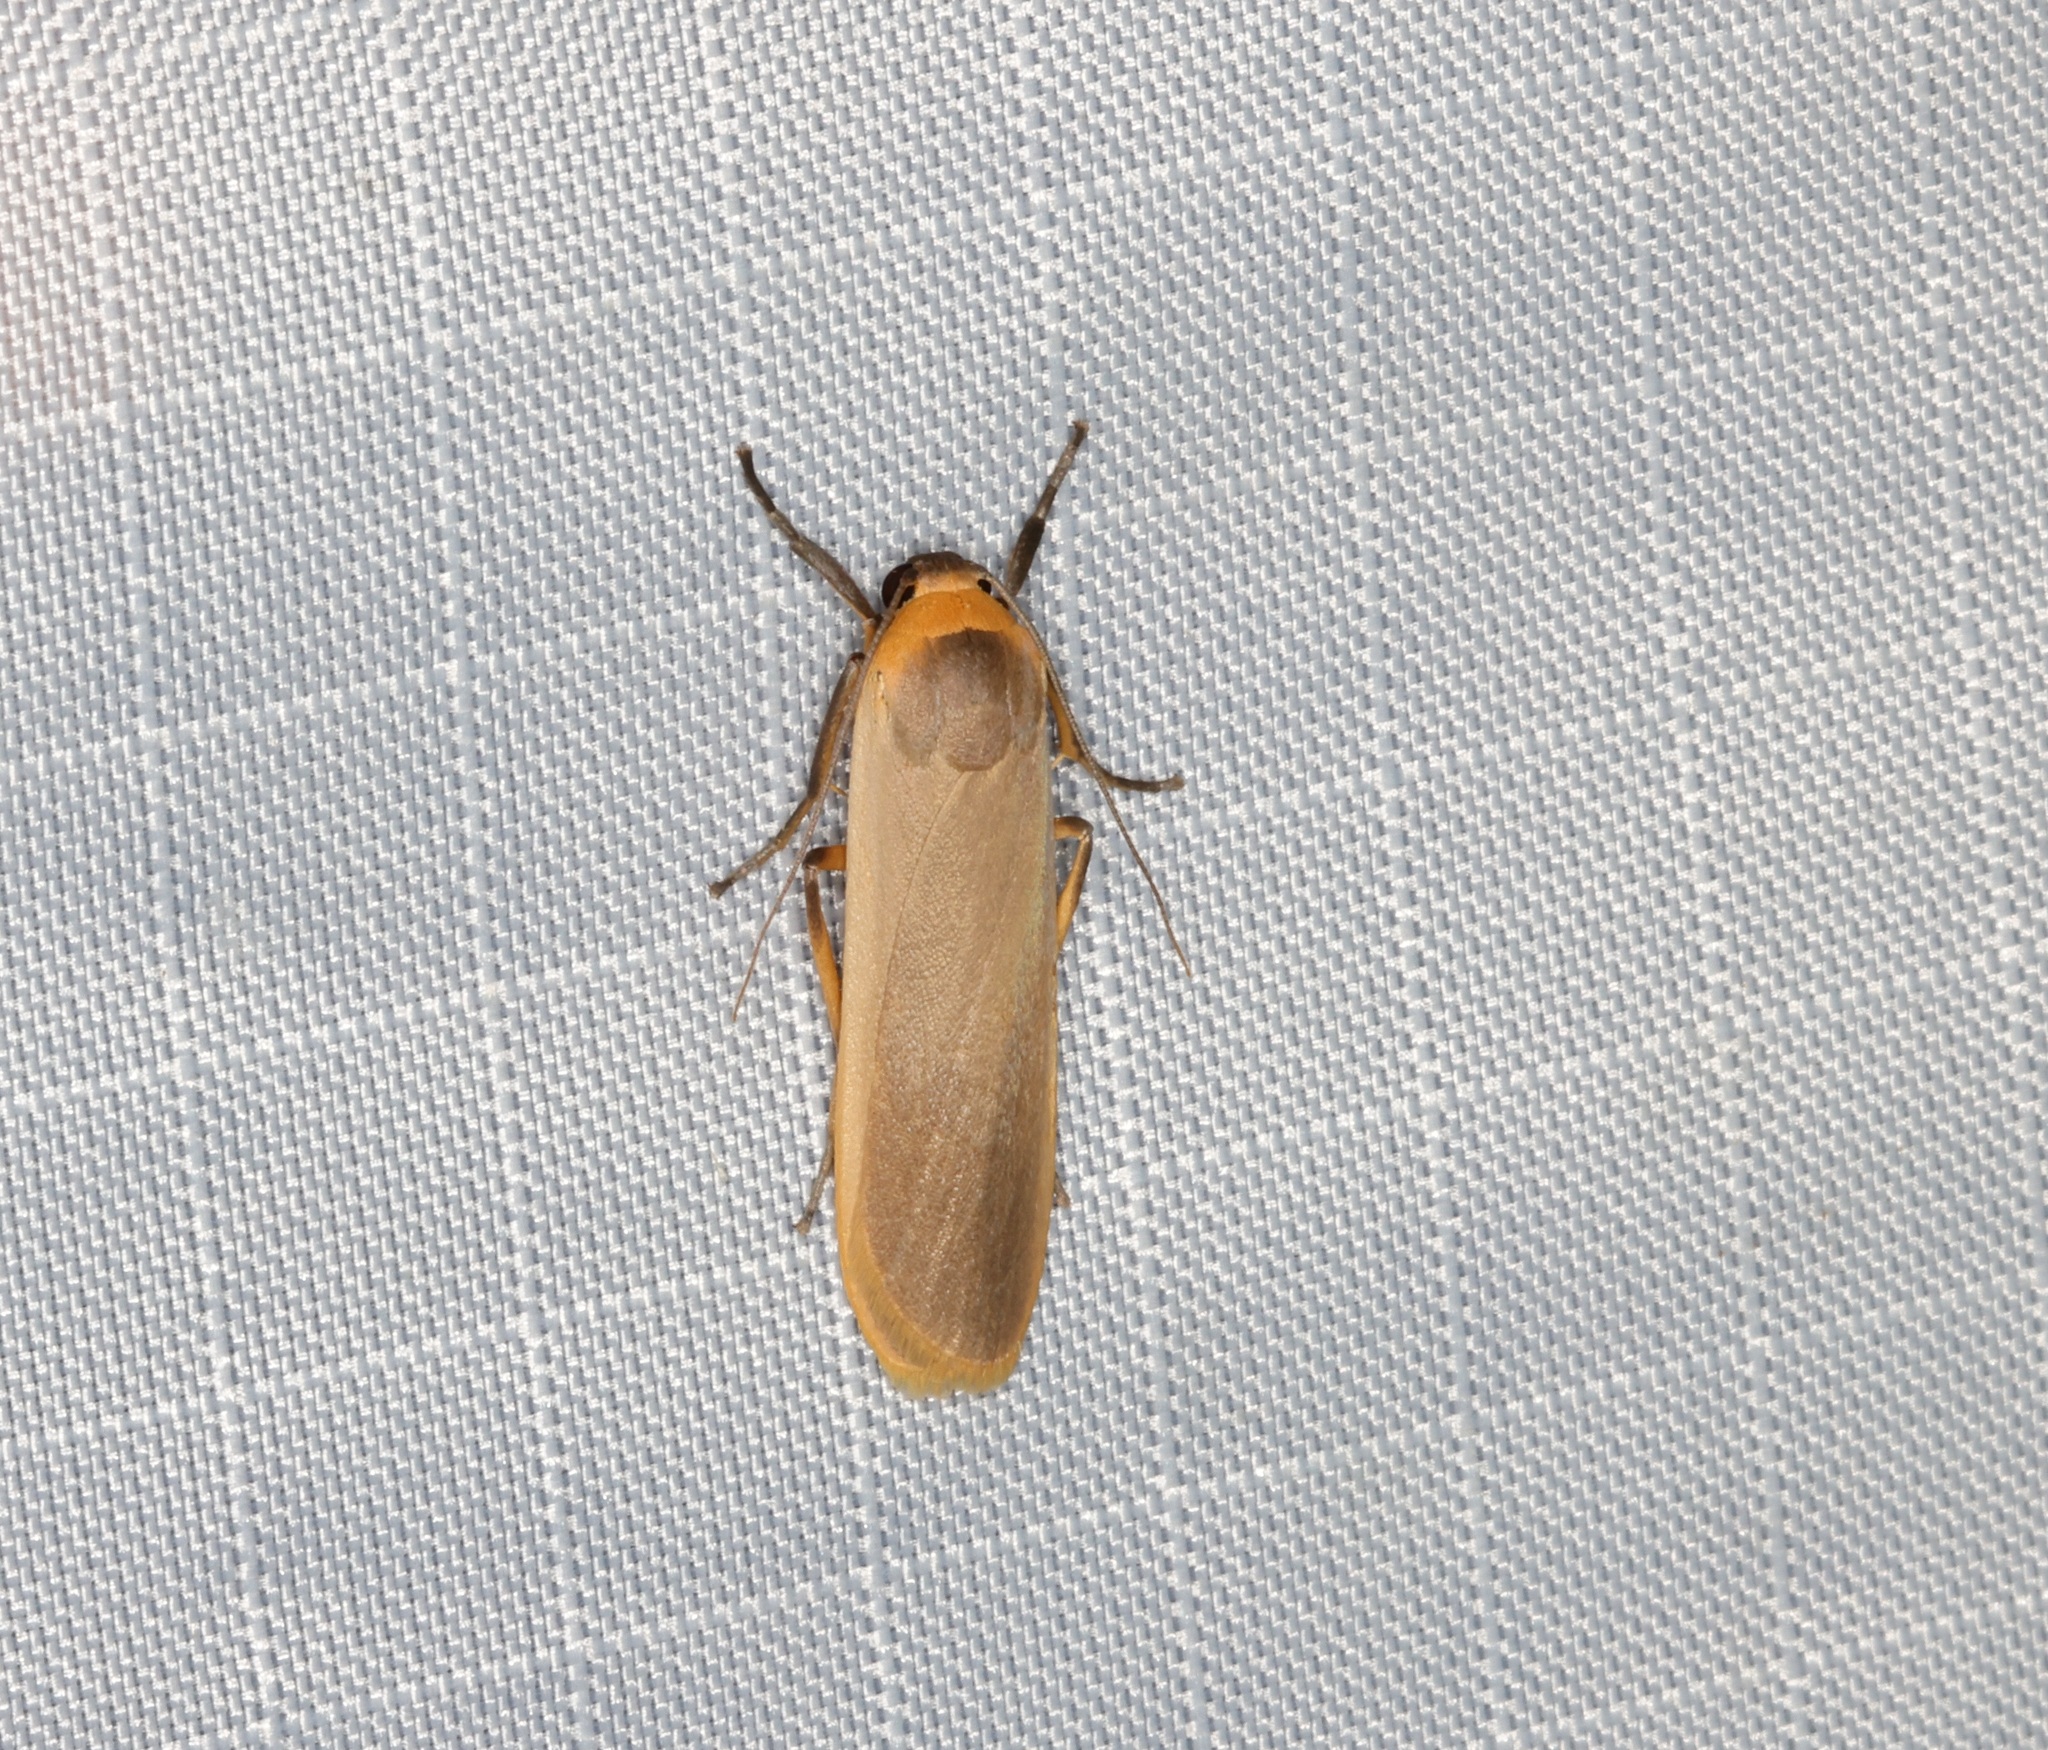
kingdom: Animalia
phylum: Arthropoda
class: Insecta
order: Lepidoptera
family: Erebidae
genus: Brunia
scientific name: Brunia antica
